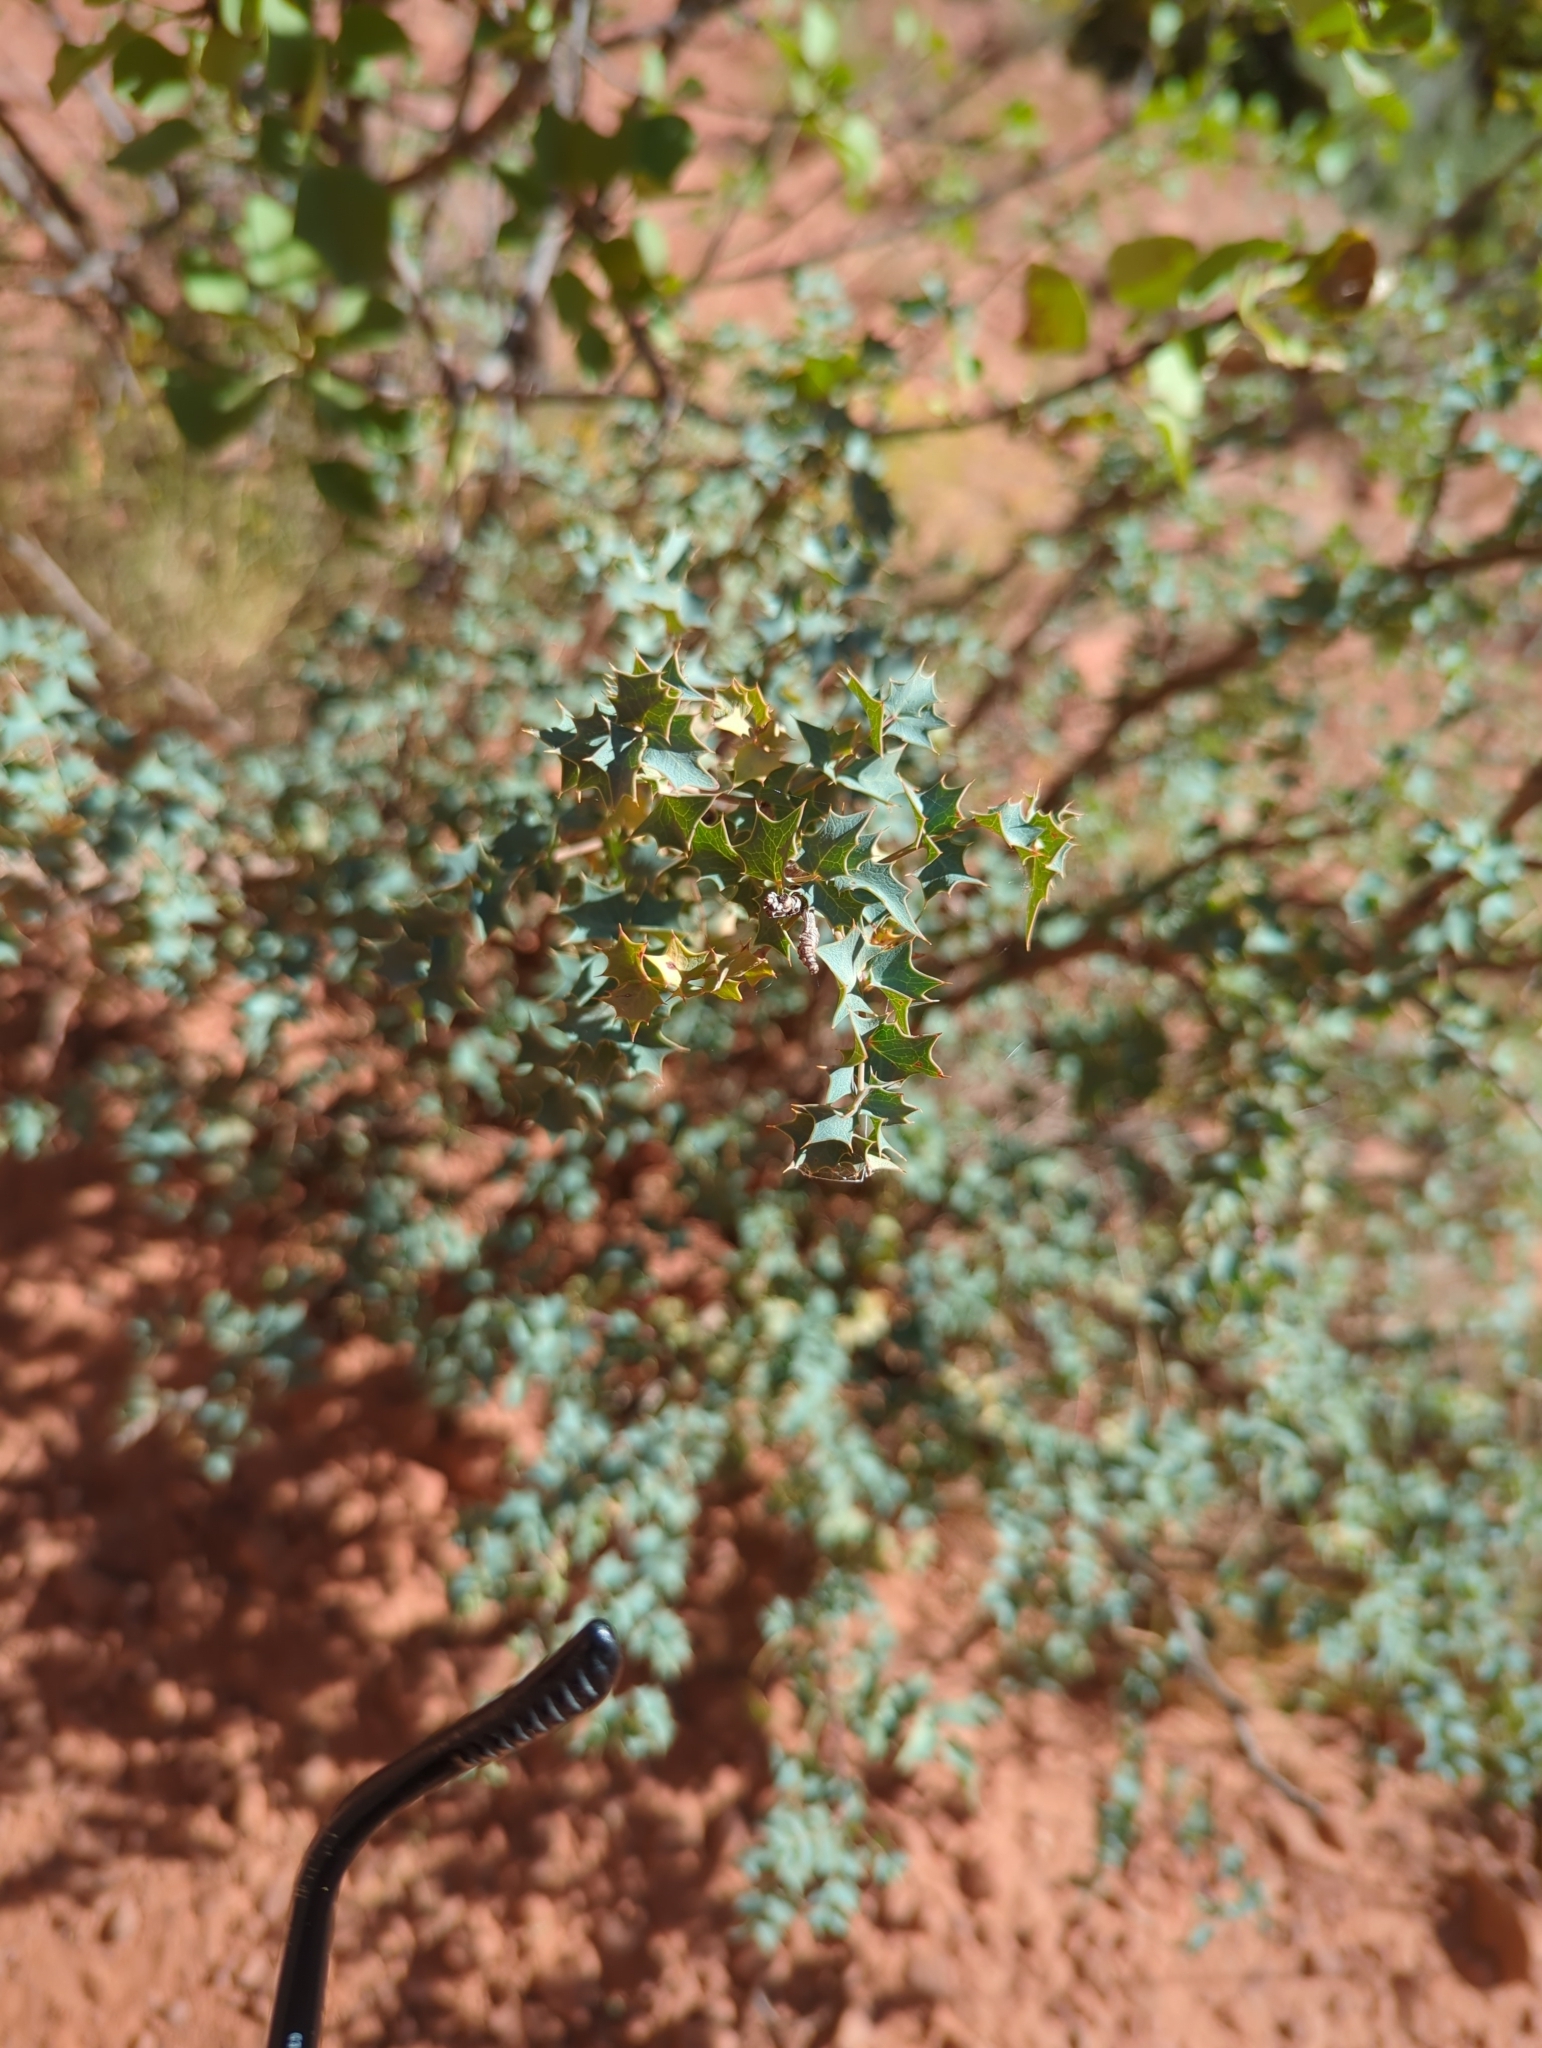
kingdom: Plantae
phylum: Tracheophyta
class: Magnoliopsida
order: Ranunculales
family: Berberidaceae
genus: Alloberberis
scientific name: Alloberberis fremontii
